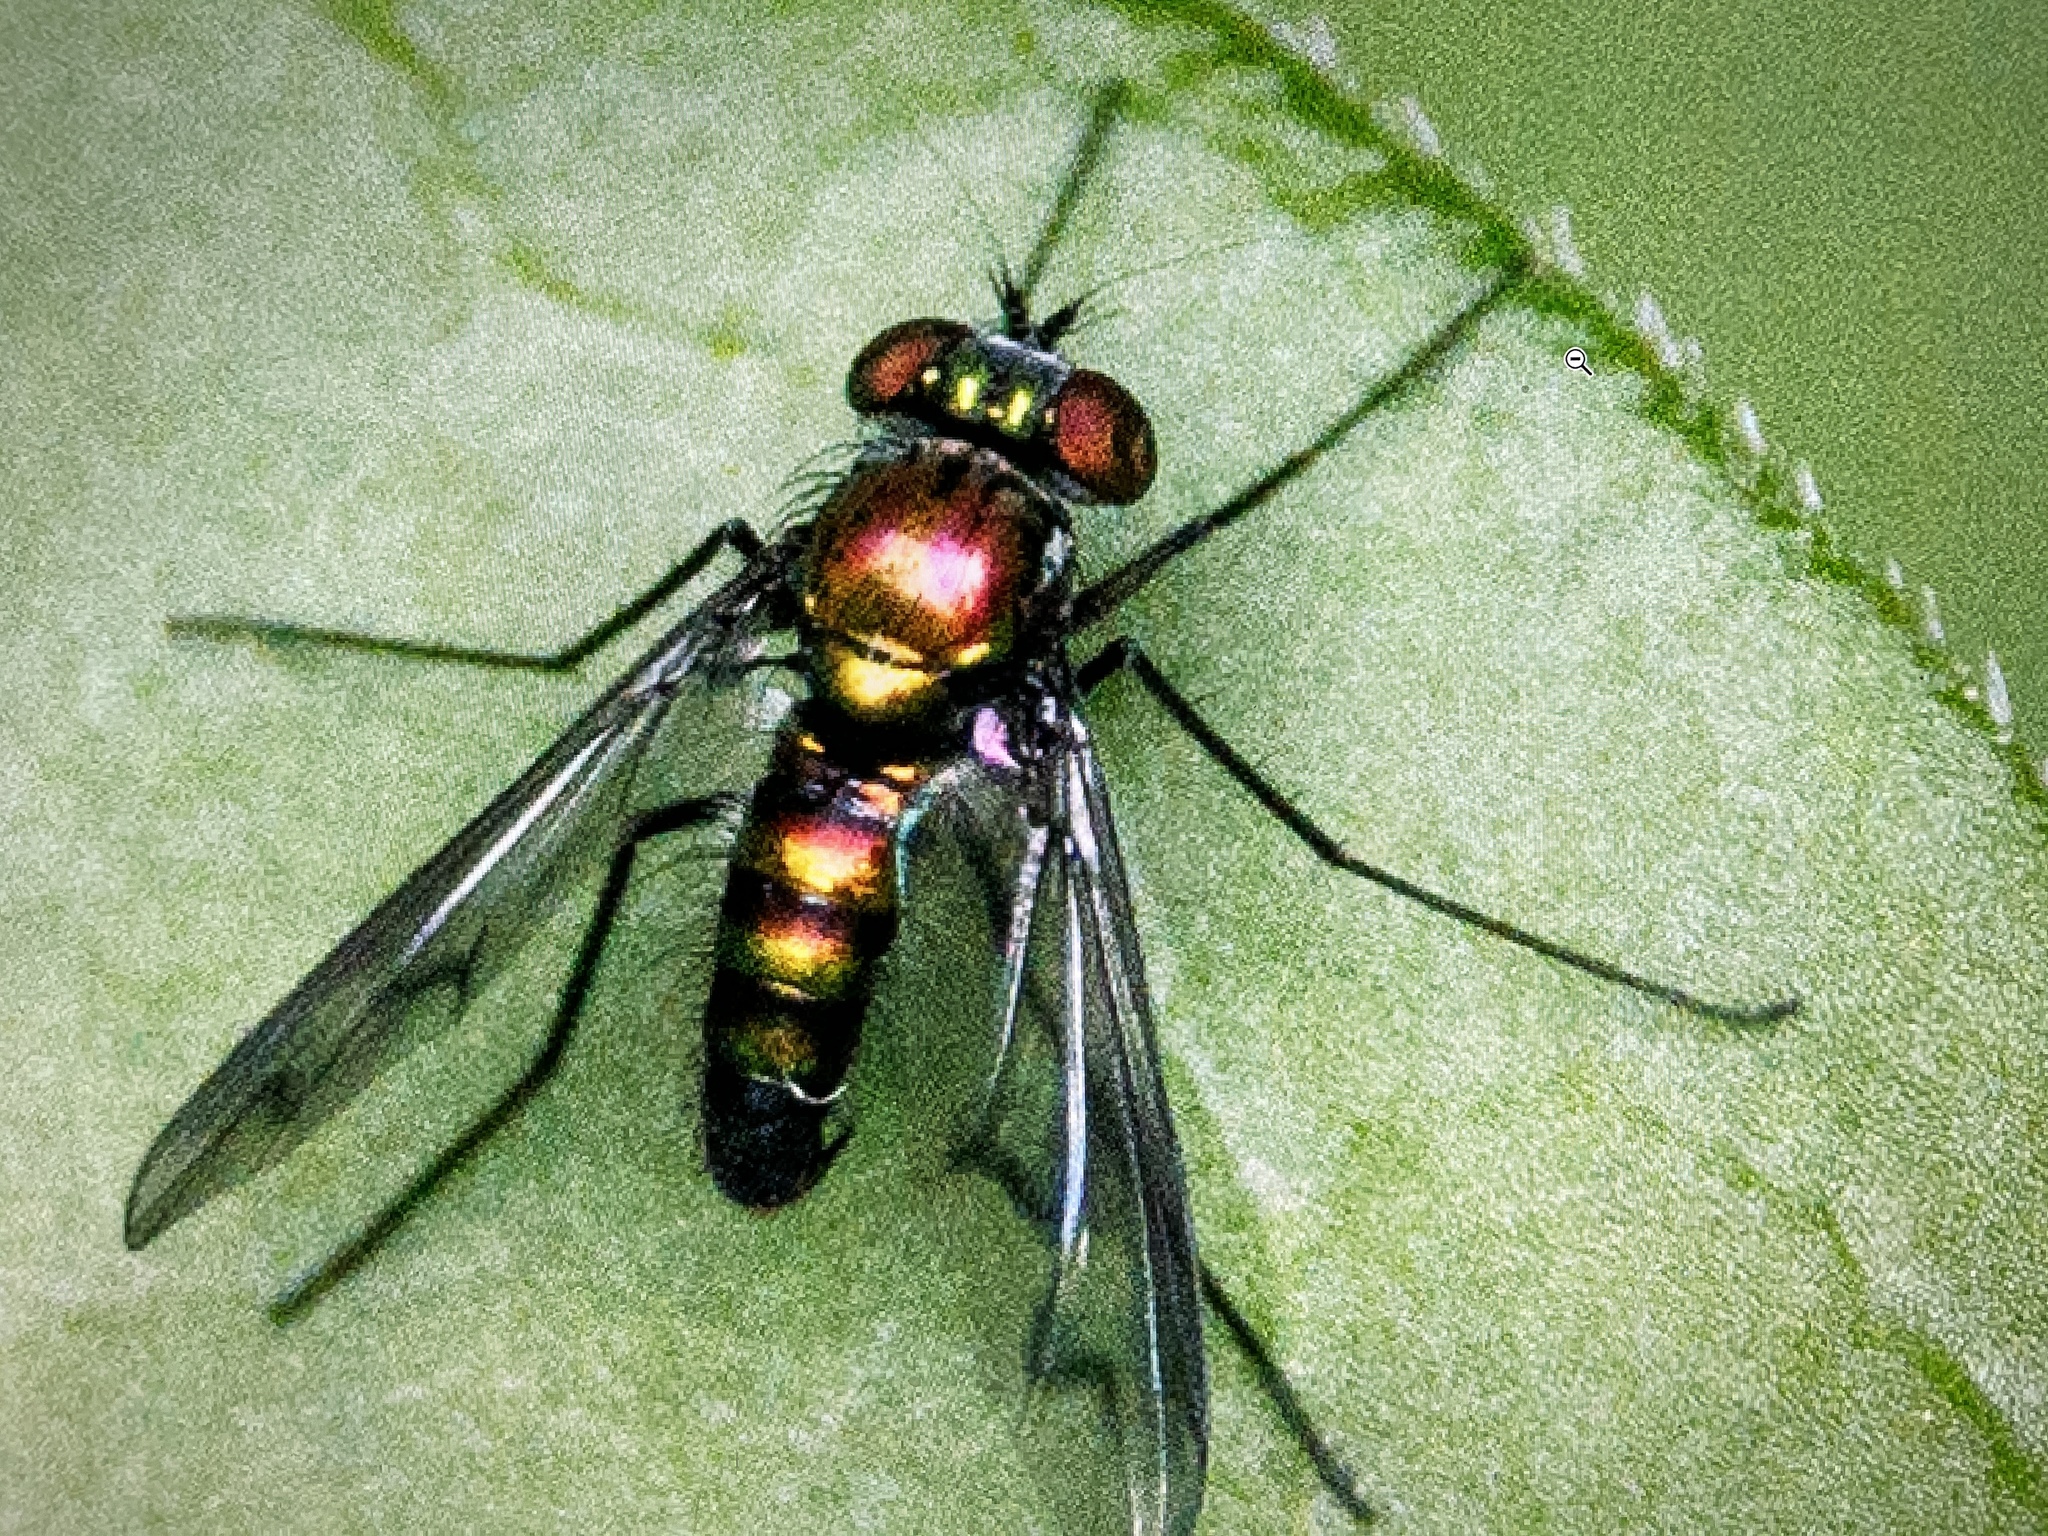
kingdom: Animalia
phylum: Arthropoda
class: Insecta
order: Diptera
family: Dolichopodidae
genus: Condylostylus
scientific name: Condylostylus patibulatus
